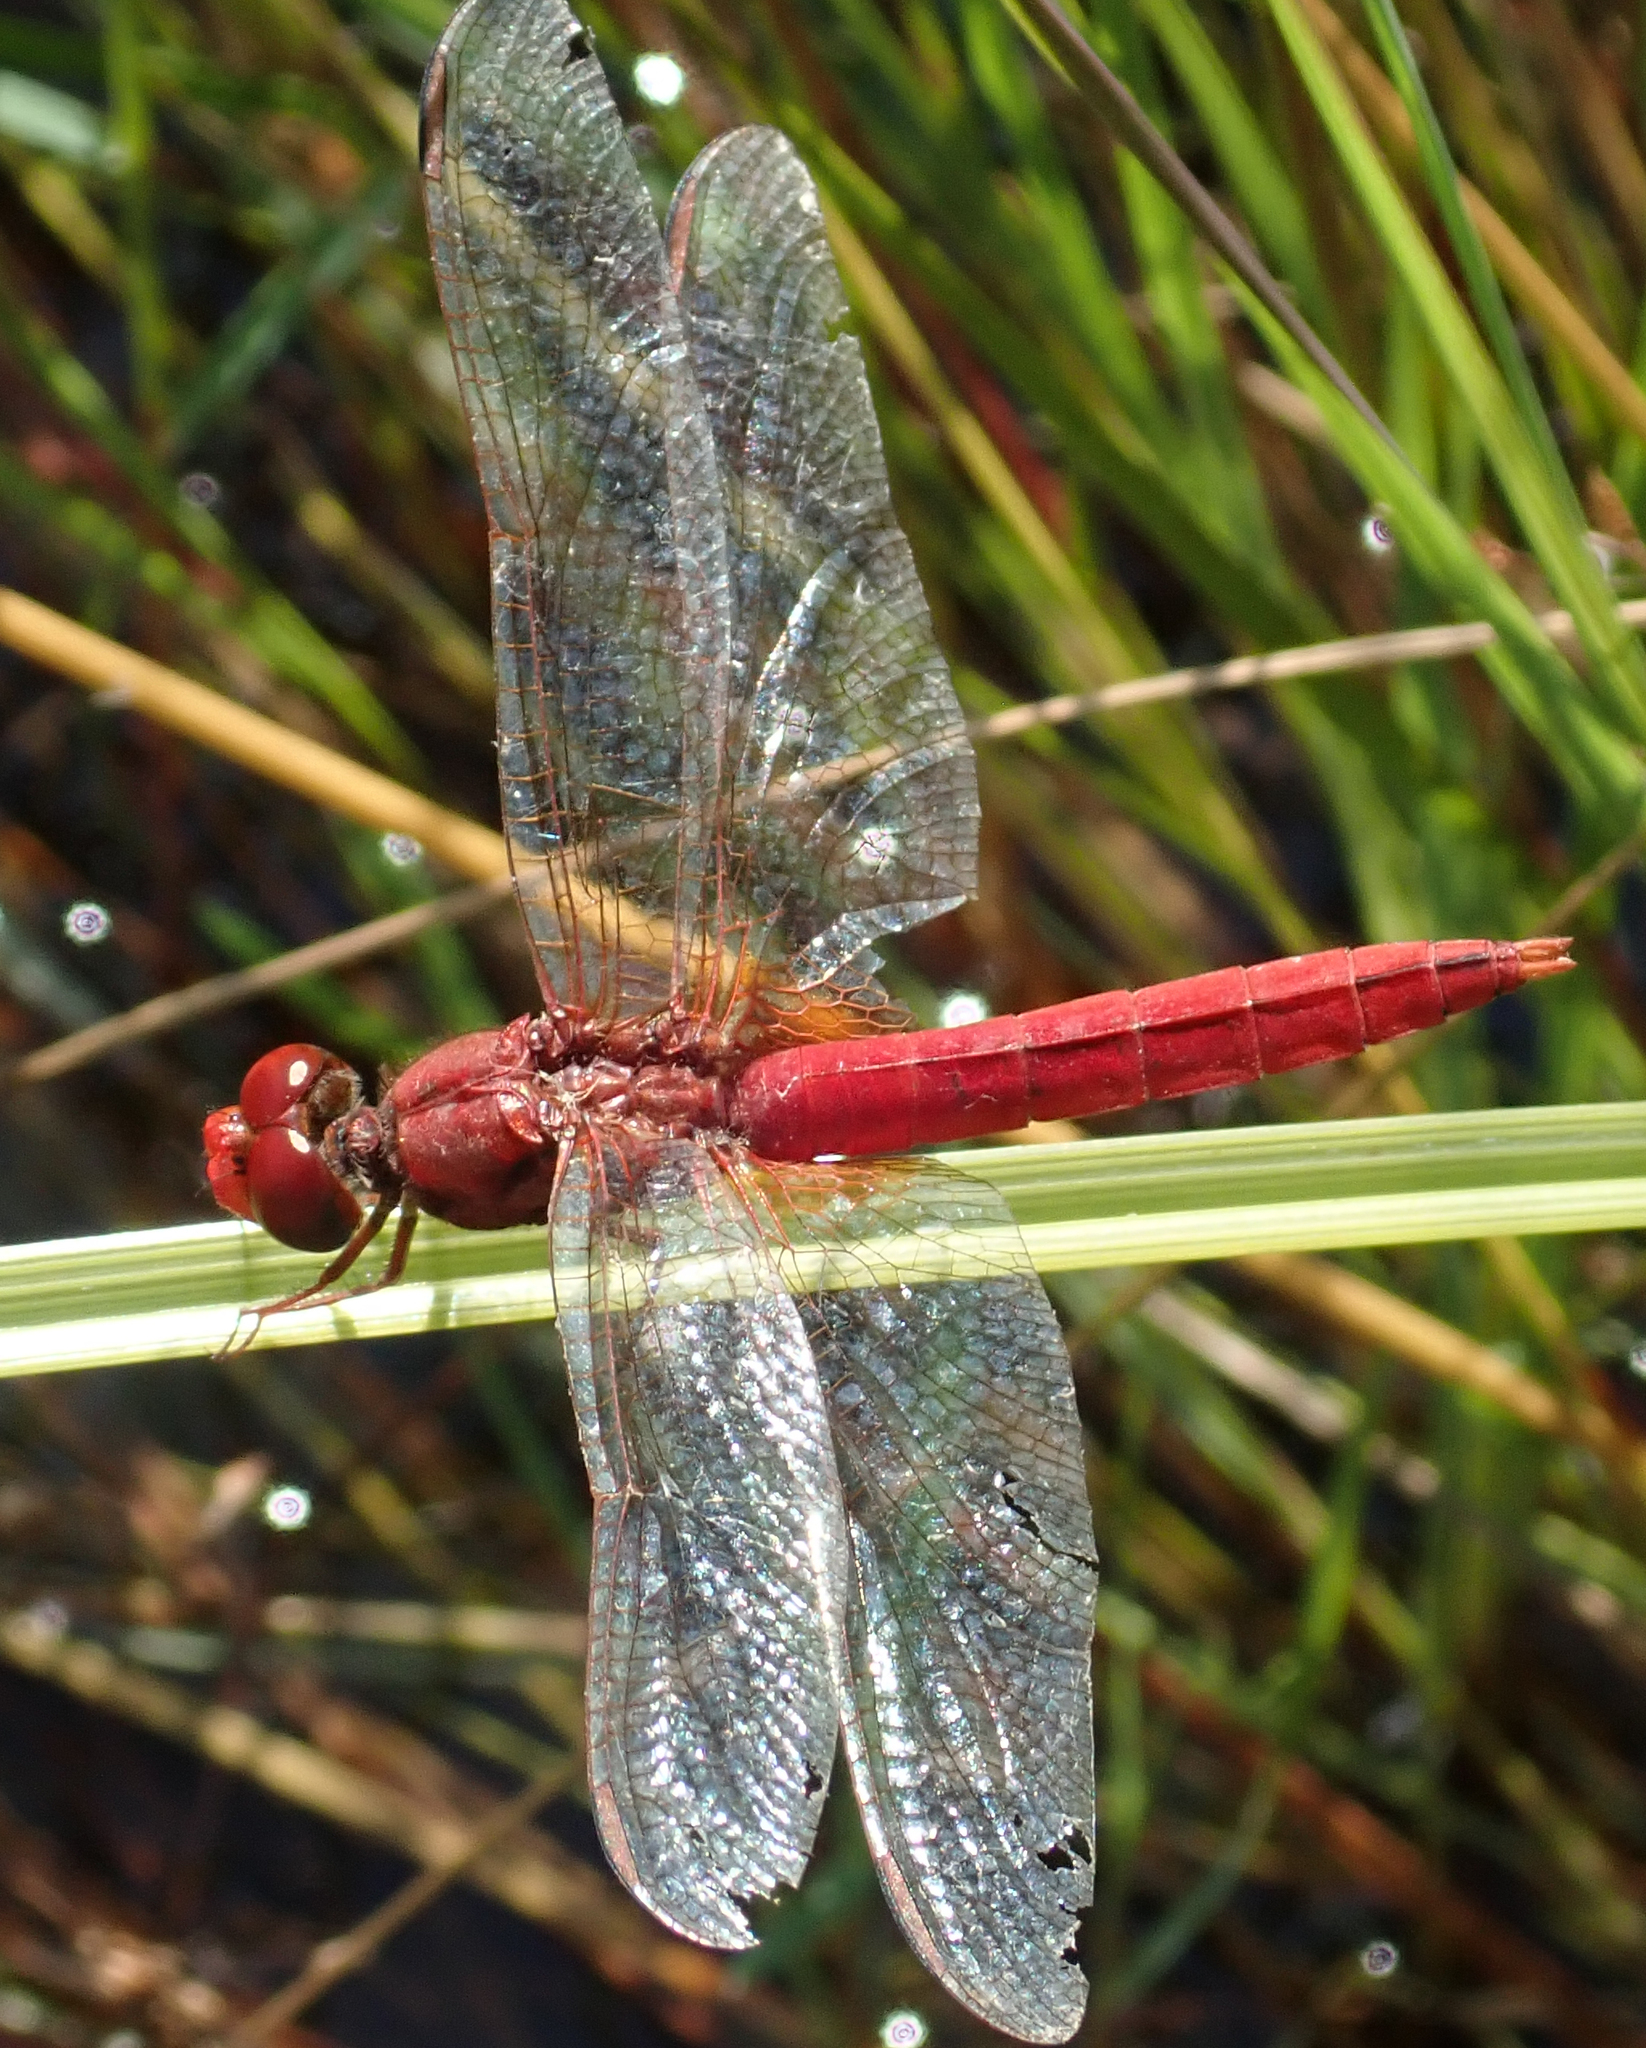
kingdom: Animalia
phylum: Arthropoda
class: Insecta
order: Odonata
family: Libellulidae
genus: Crocothemis
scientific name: Crocothemis erythraea
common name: Scarlet dragonfly
